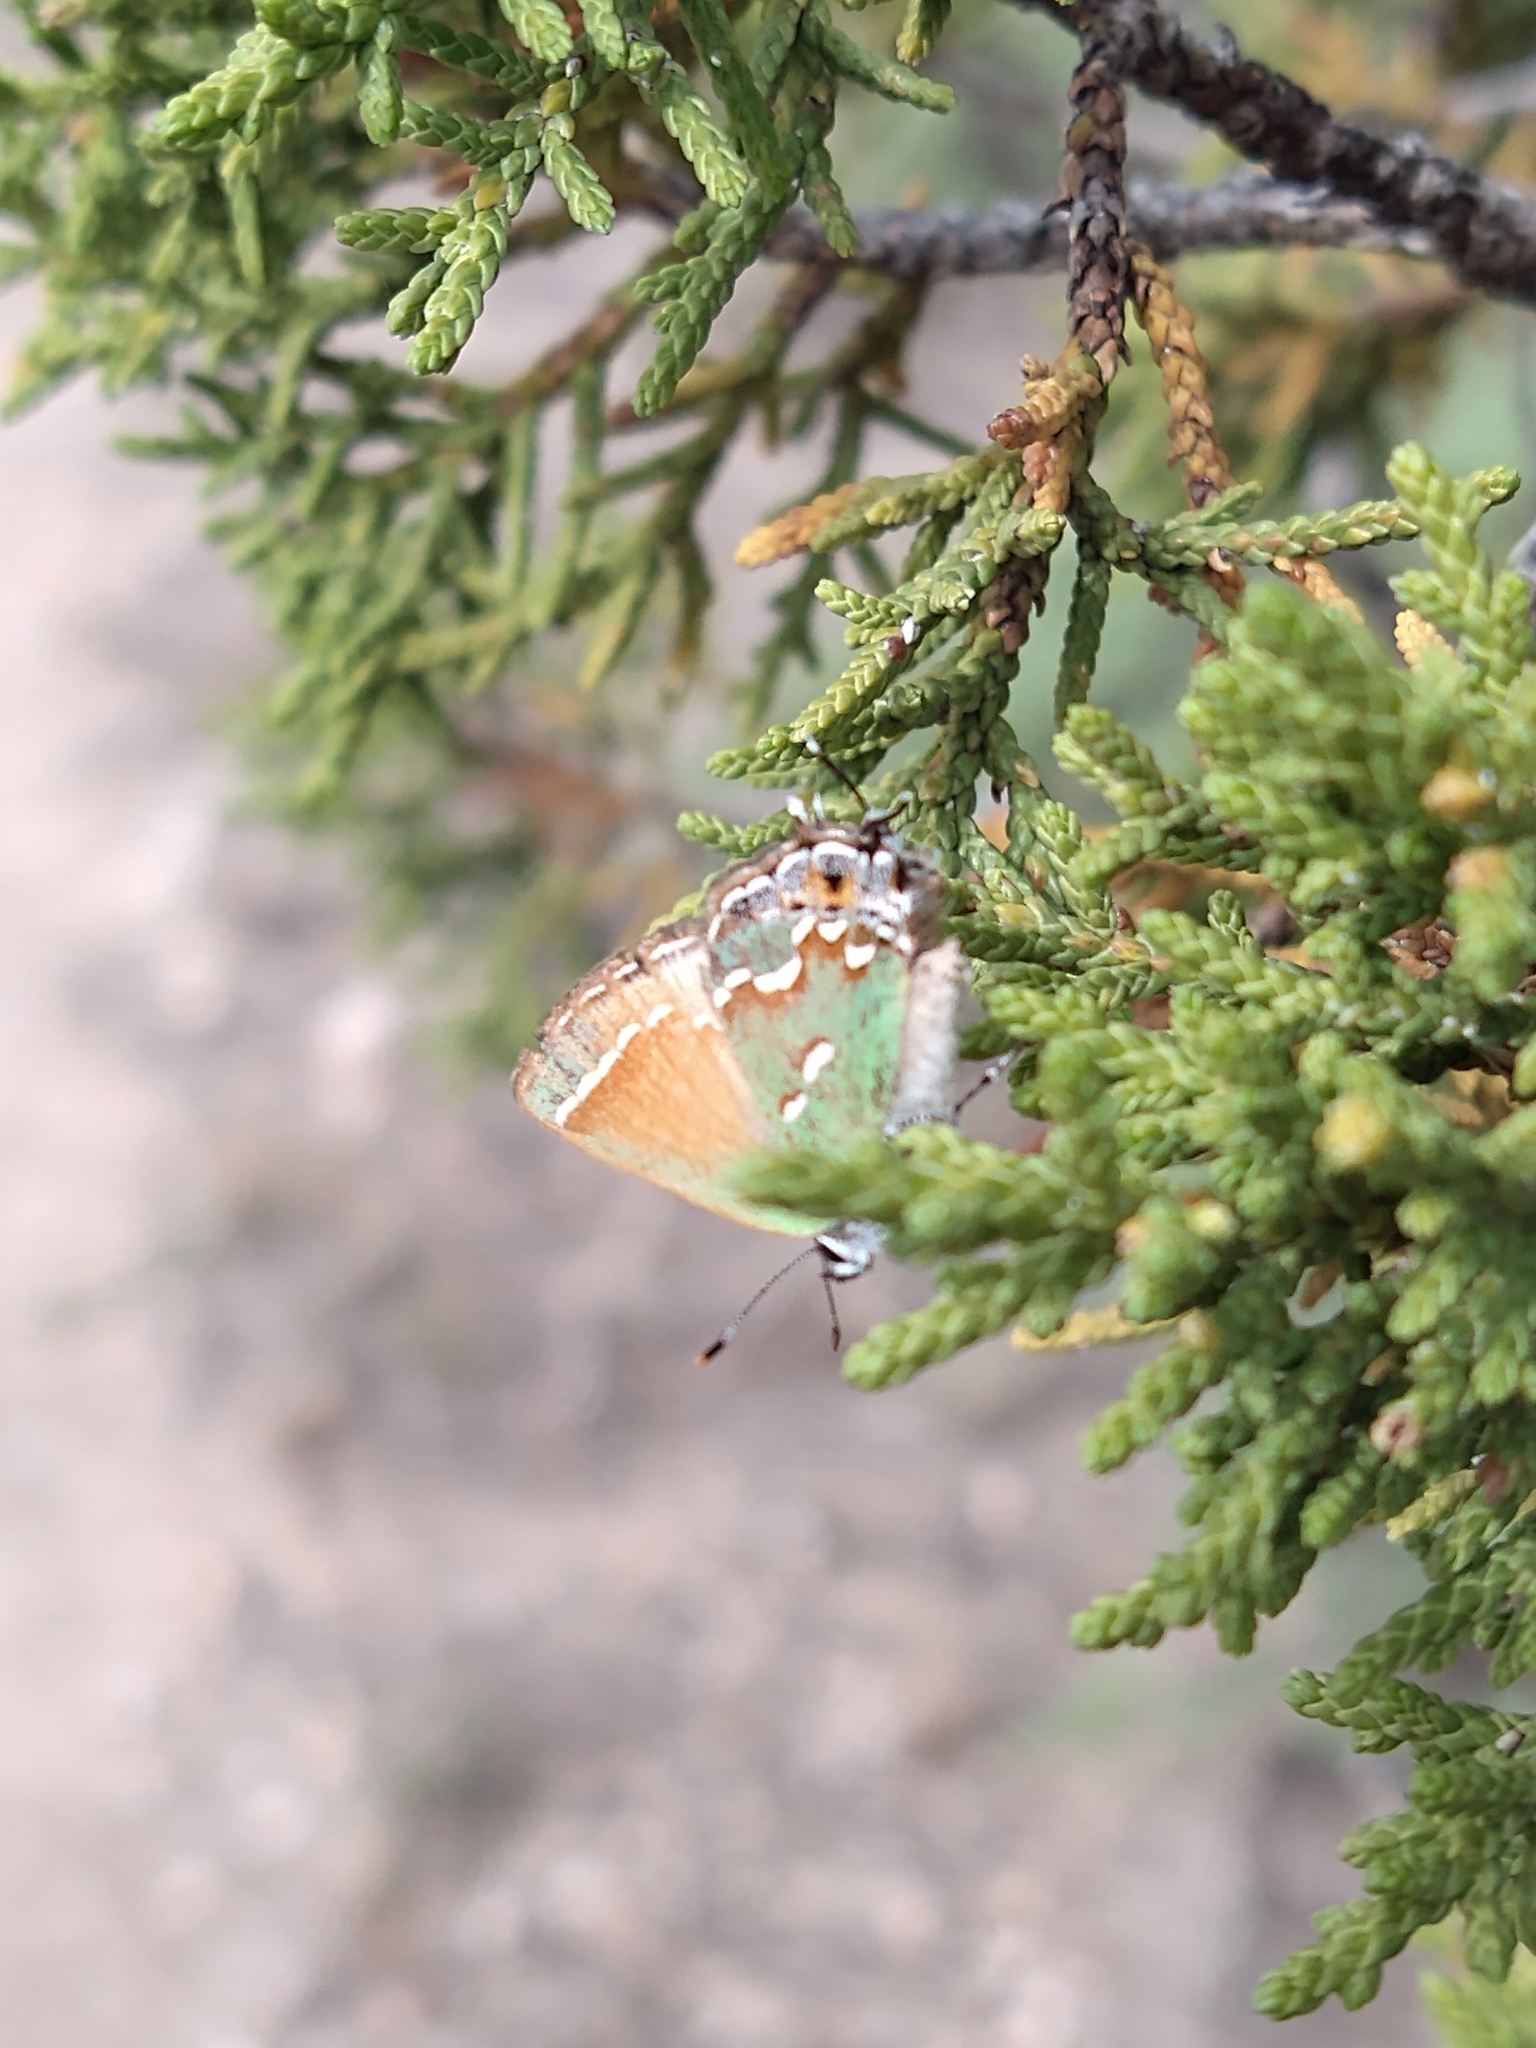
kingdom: Animalia
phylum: Arthropoda
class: Insecta
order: Lepidoptera
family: Lycaenidae
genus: Mitoura
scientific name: Mitoura gryneus
